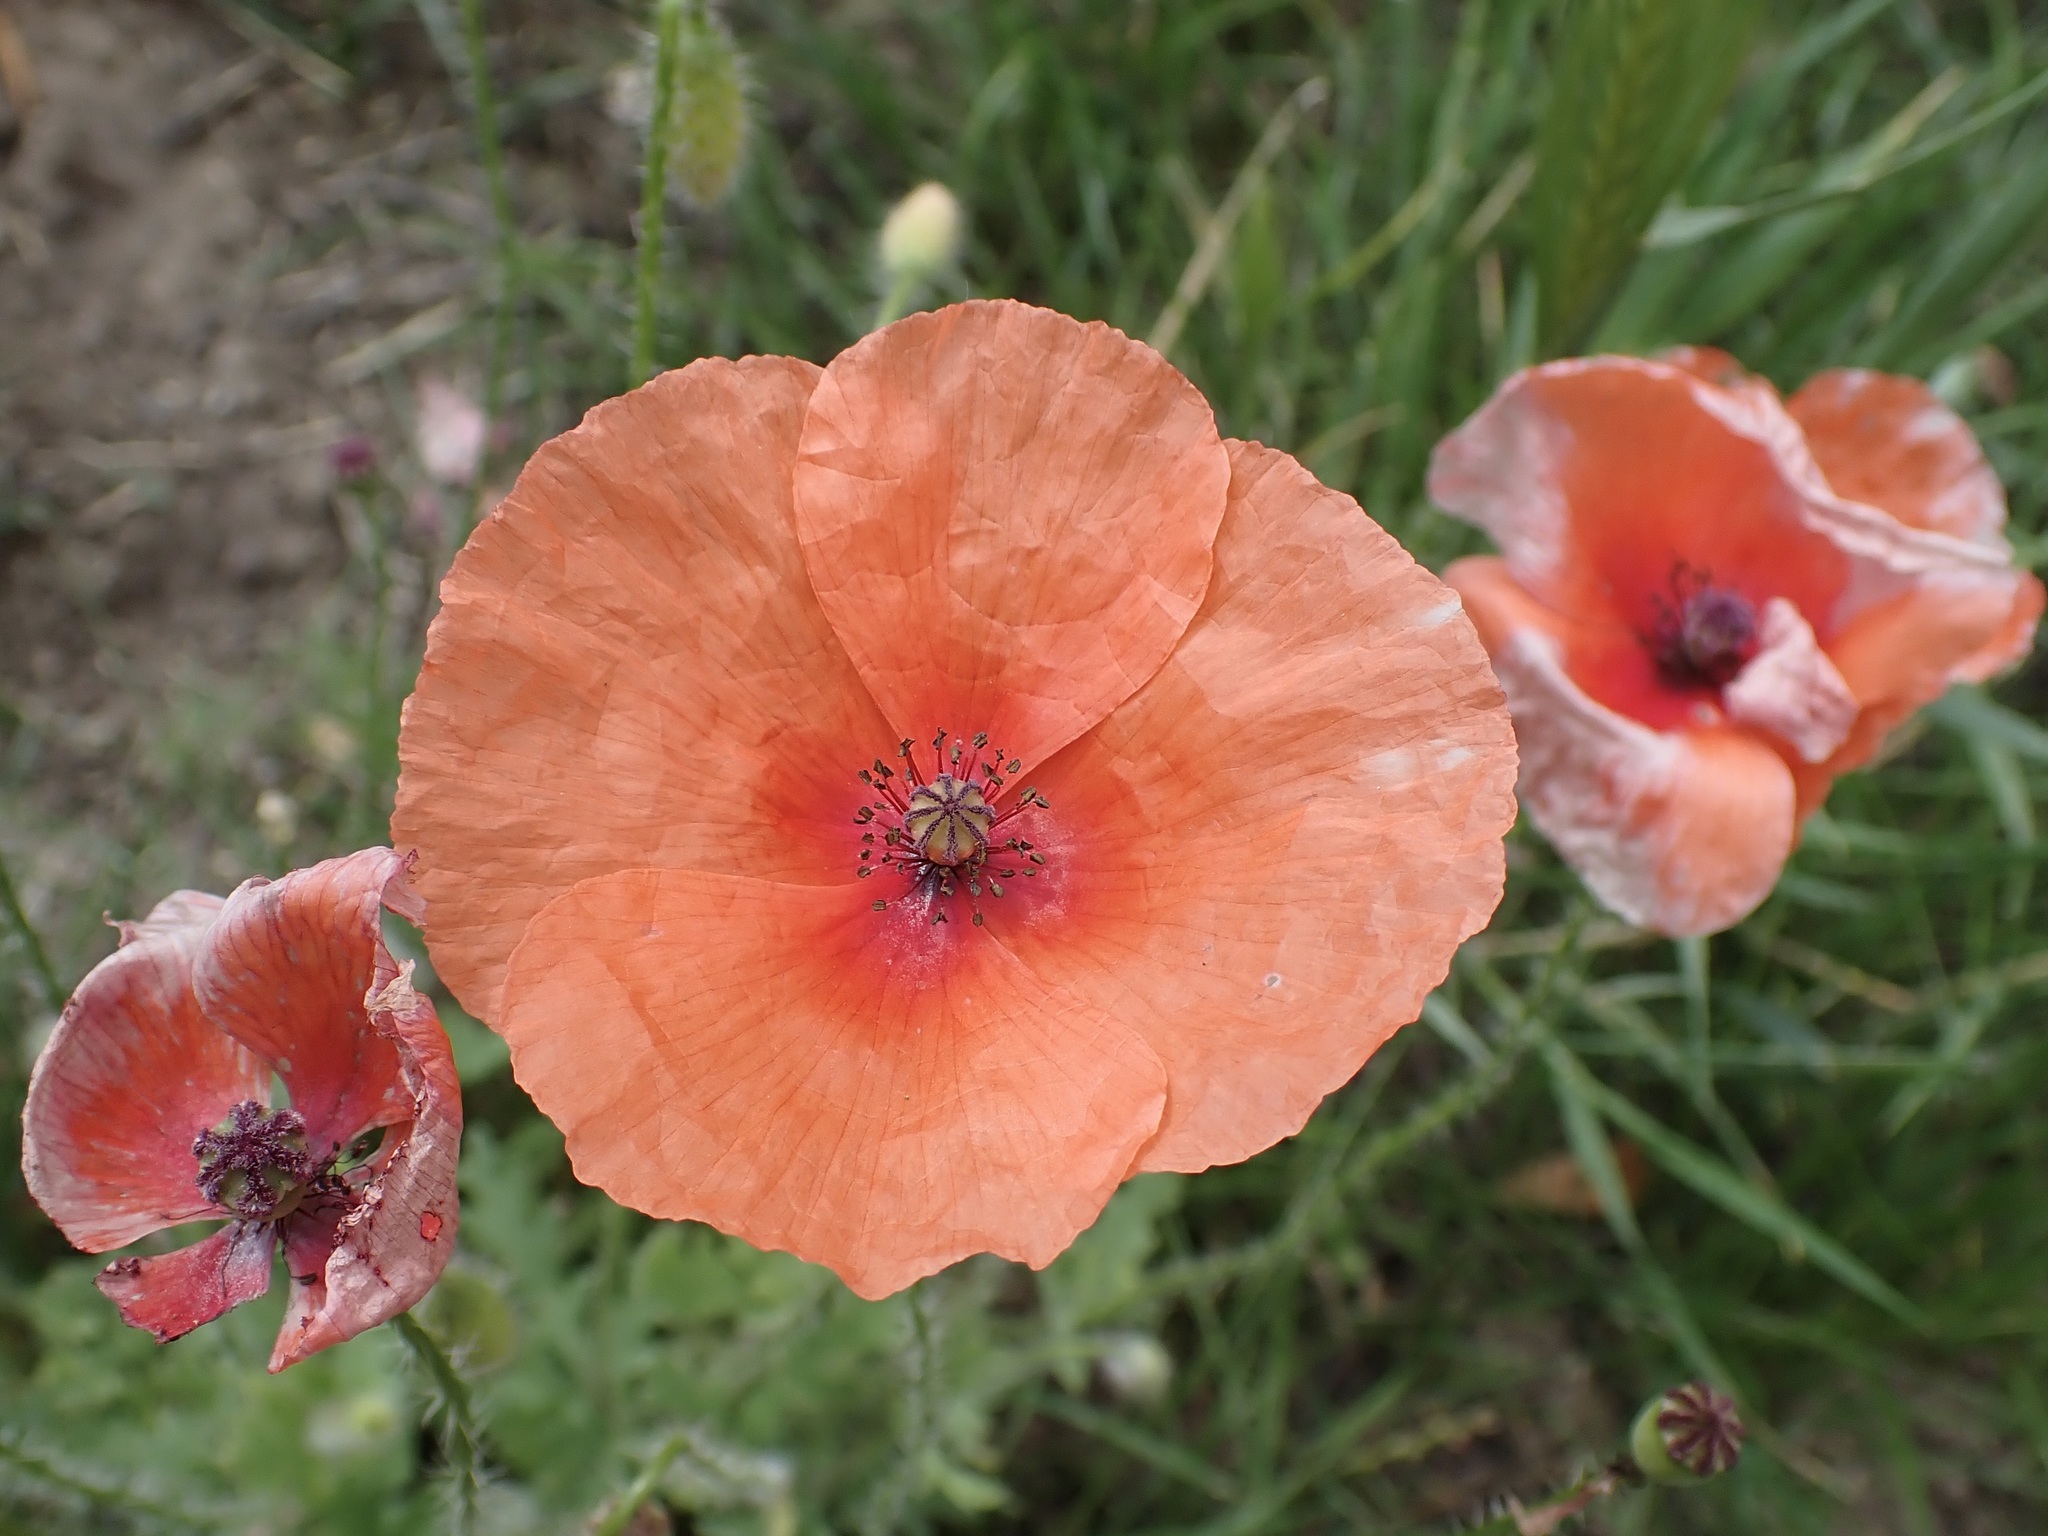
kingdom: Plantae
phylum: Tracheophyta
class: Magnoliopsida
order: Ranunculales
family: Papaveraceae
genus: Papaver
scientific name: Papaver rhoeas
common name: Corn poppy
